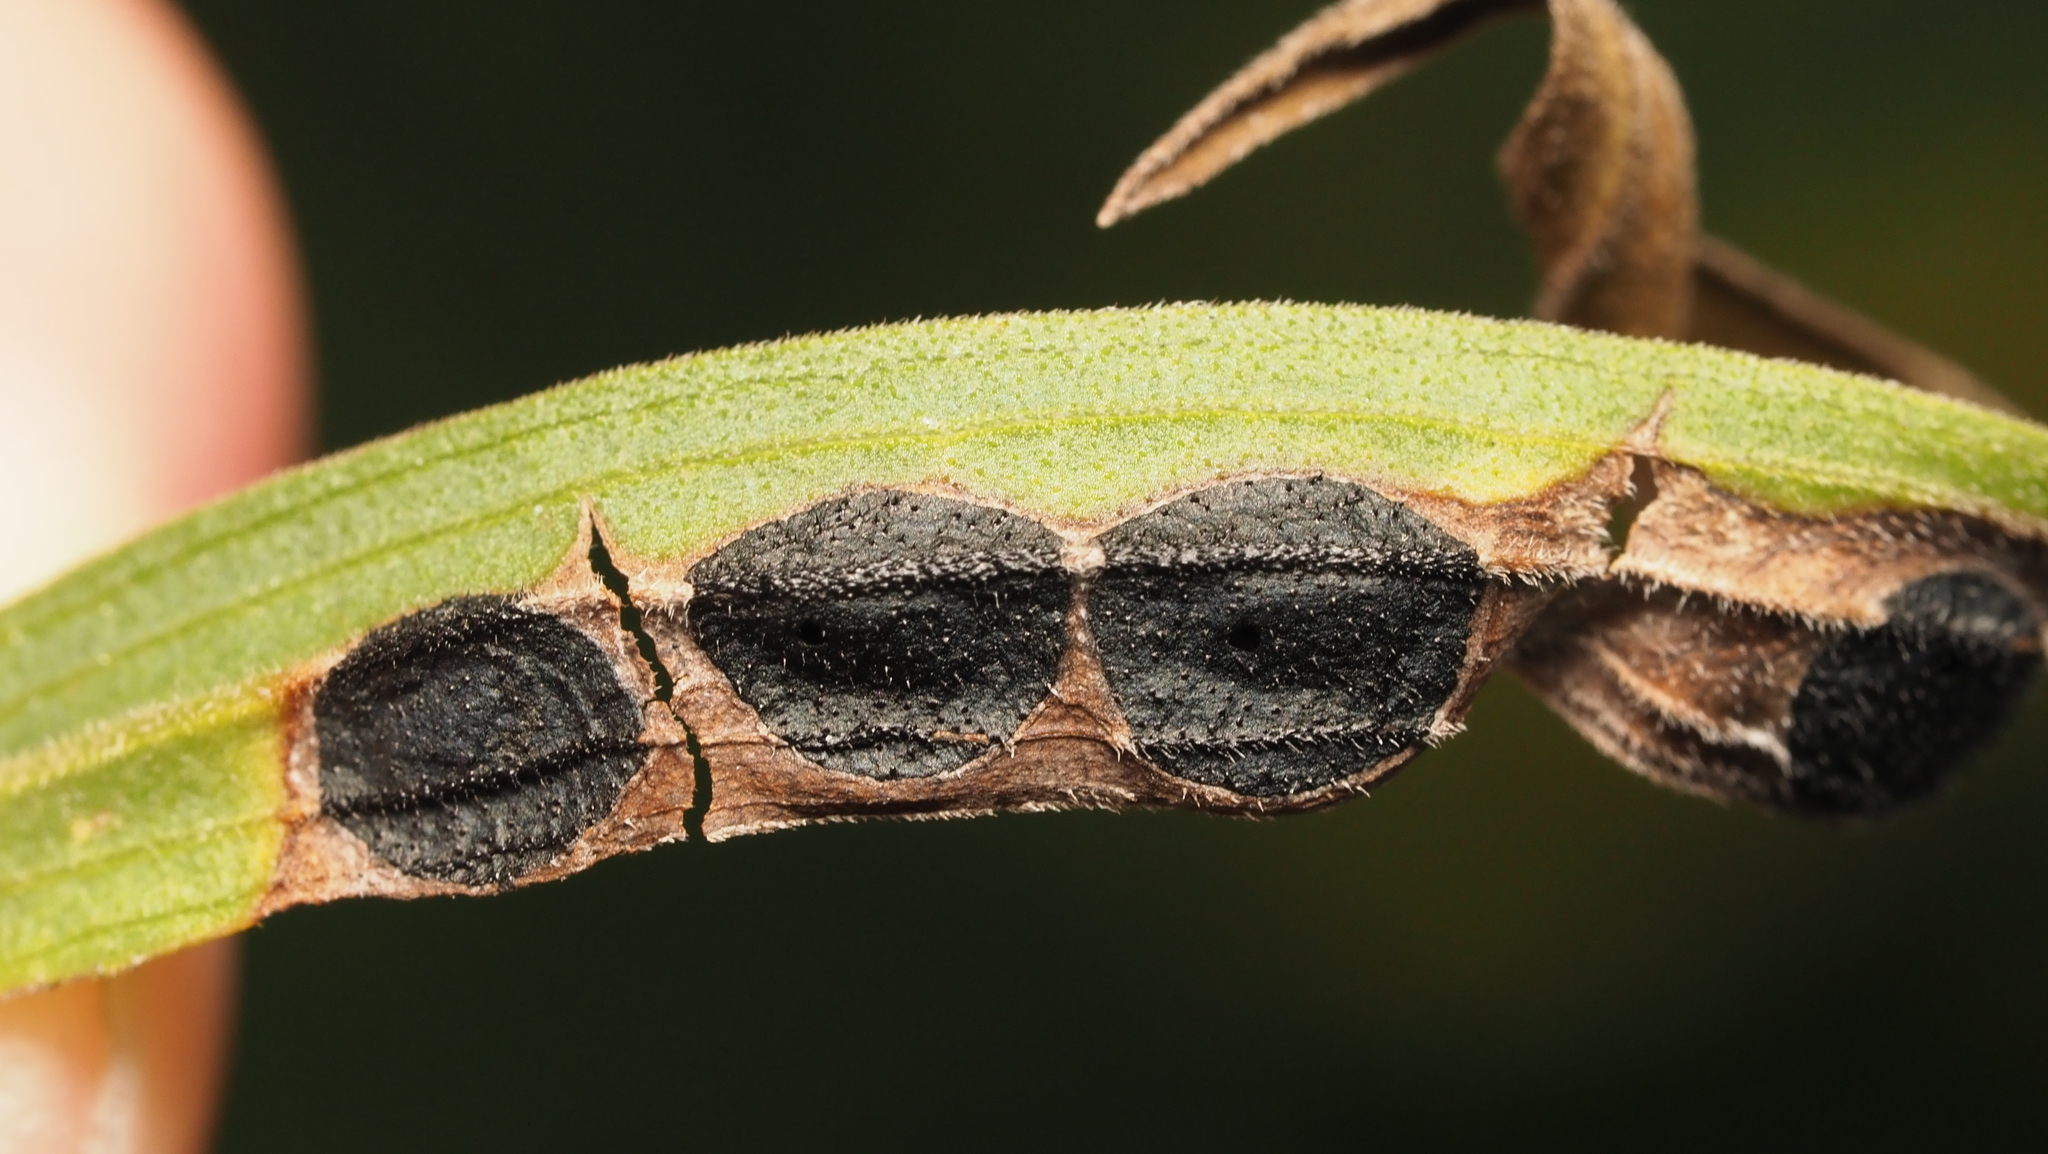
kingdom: Animalia
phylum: Arthropoda
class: Insecta
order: Diptera
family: Cecidomyiidae
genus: Asteromyia
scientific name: Asteromyia euthamiae
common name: Euthamia leaf gall midge
